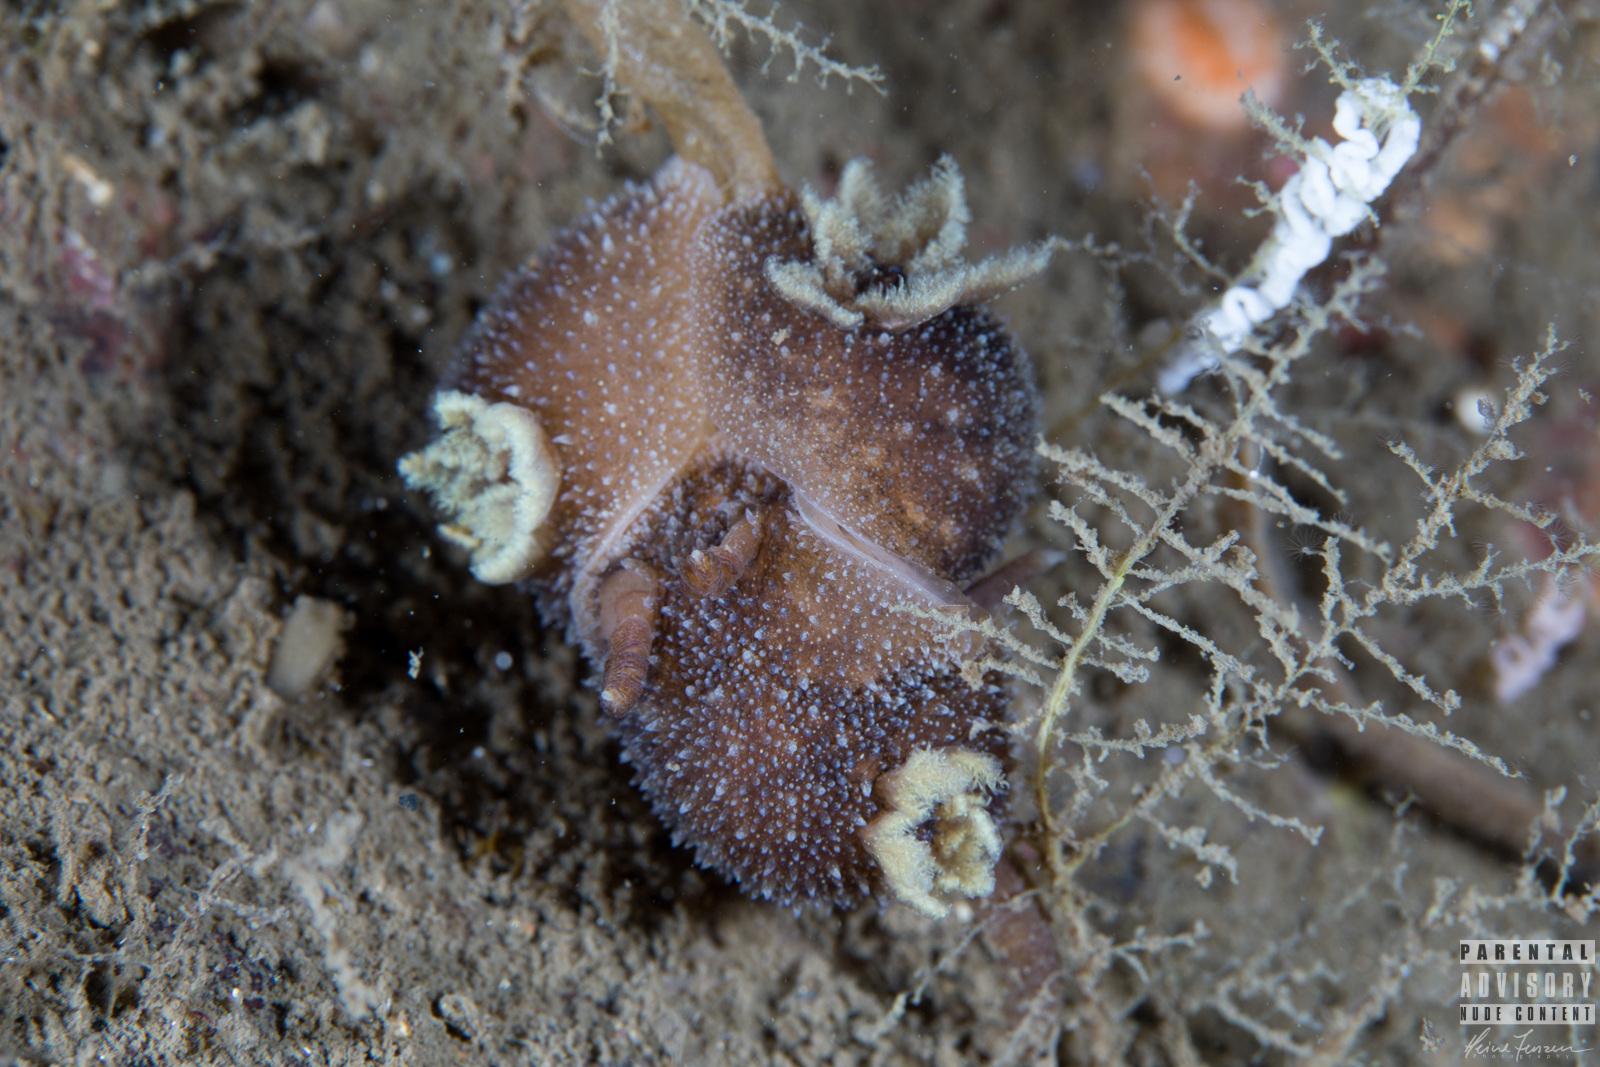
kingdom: Animalia
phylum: Mollusca
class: Gastropoda
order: Nudibranchia
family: Onchidorididae
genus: Acanthodoris
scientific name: Acanthodoris pilosa
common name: Hairy spiny doris
